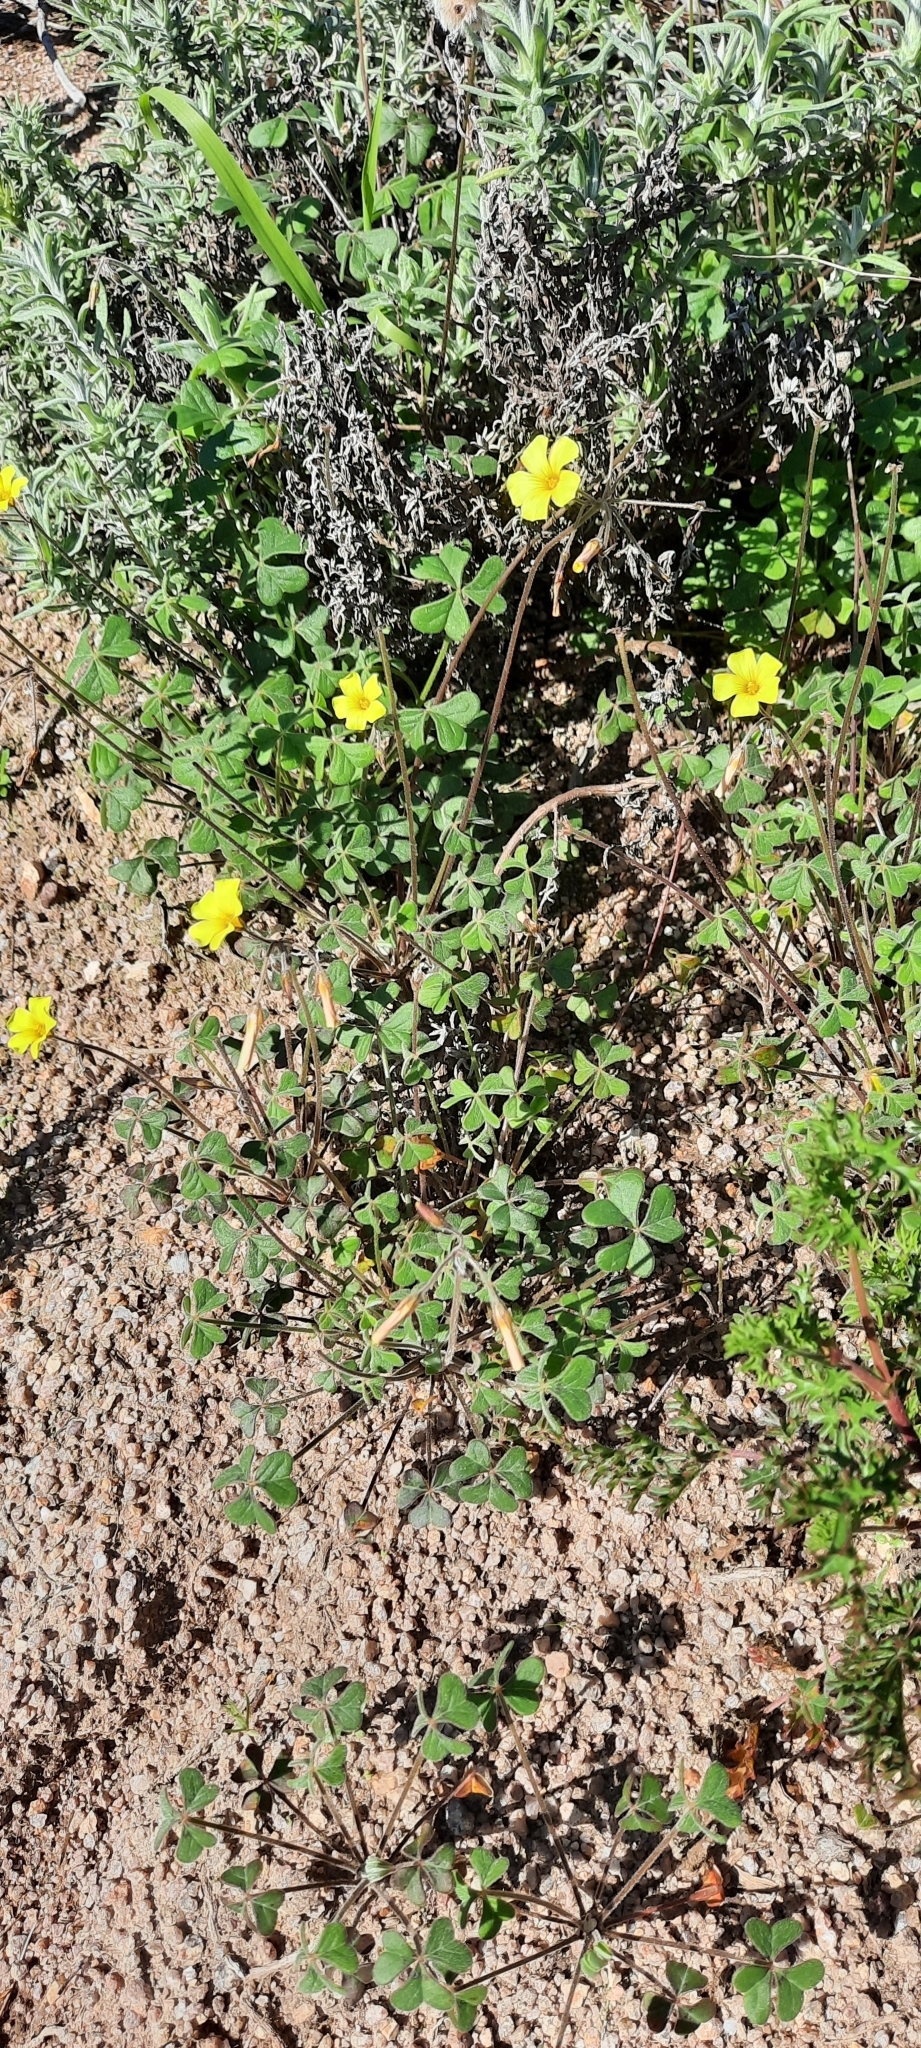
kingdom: Plantae
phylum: Tracheophyta
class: Magnoliopsida
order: Oxalidales
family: Oxalidaceae
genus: Oxalis
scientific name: Oxalis pes-caprae
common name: Bermuda-buttercup
